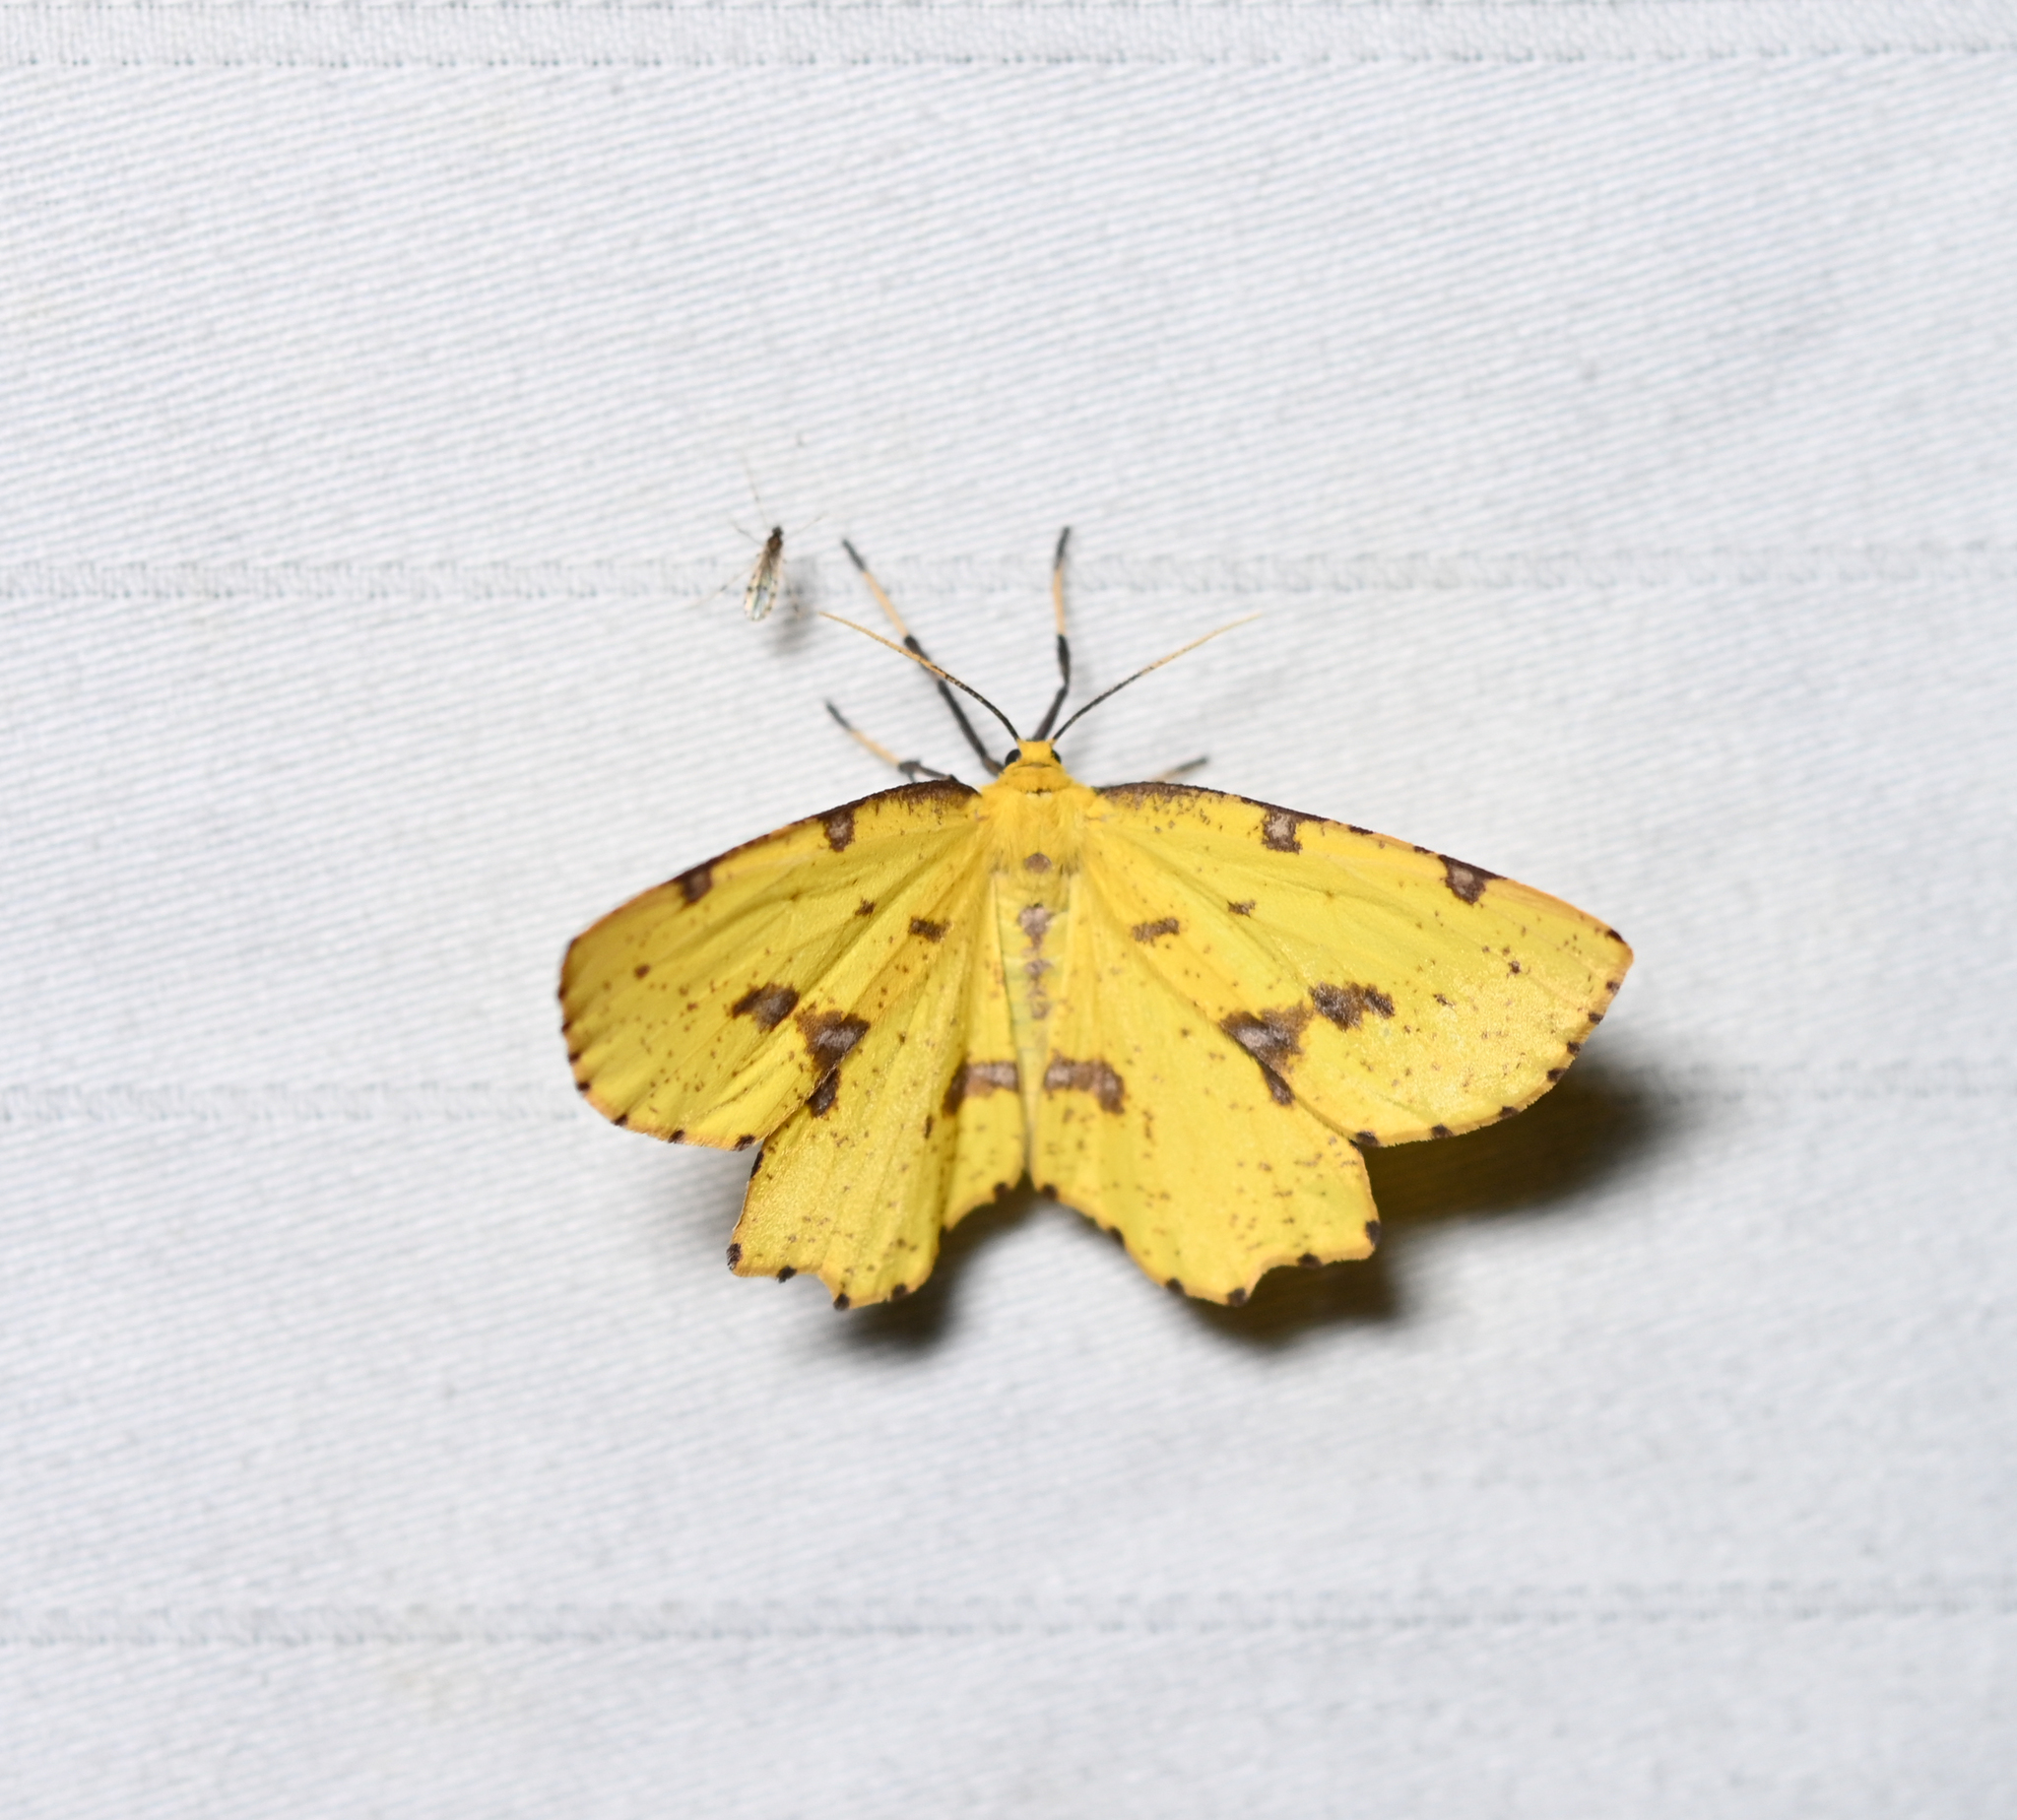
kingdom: Animalia
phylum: Arthropoda
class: Insecta
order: Lepidoptera
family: Geometridae
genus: Xanthotype
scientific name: Xanthotype
